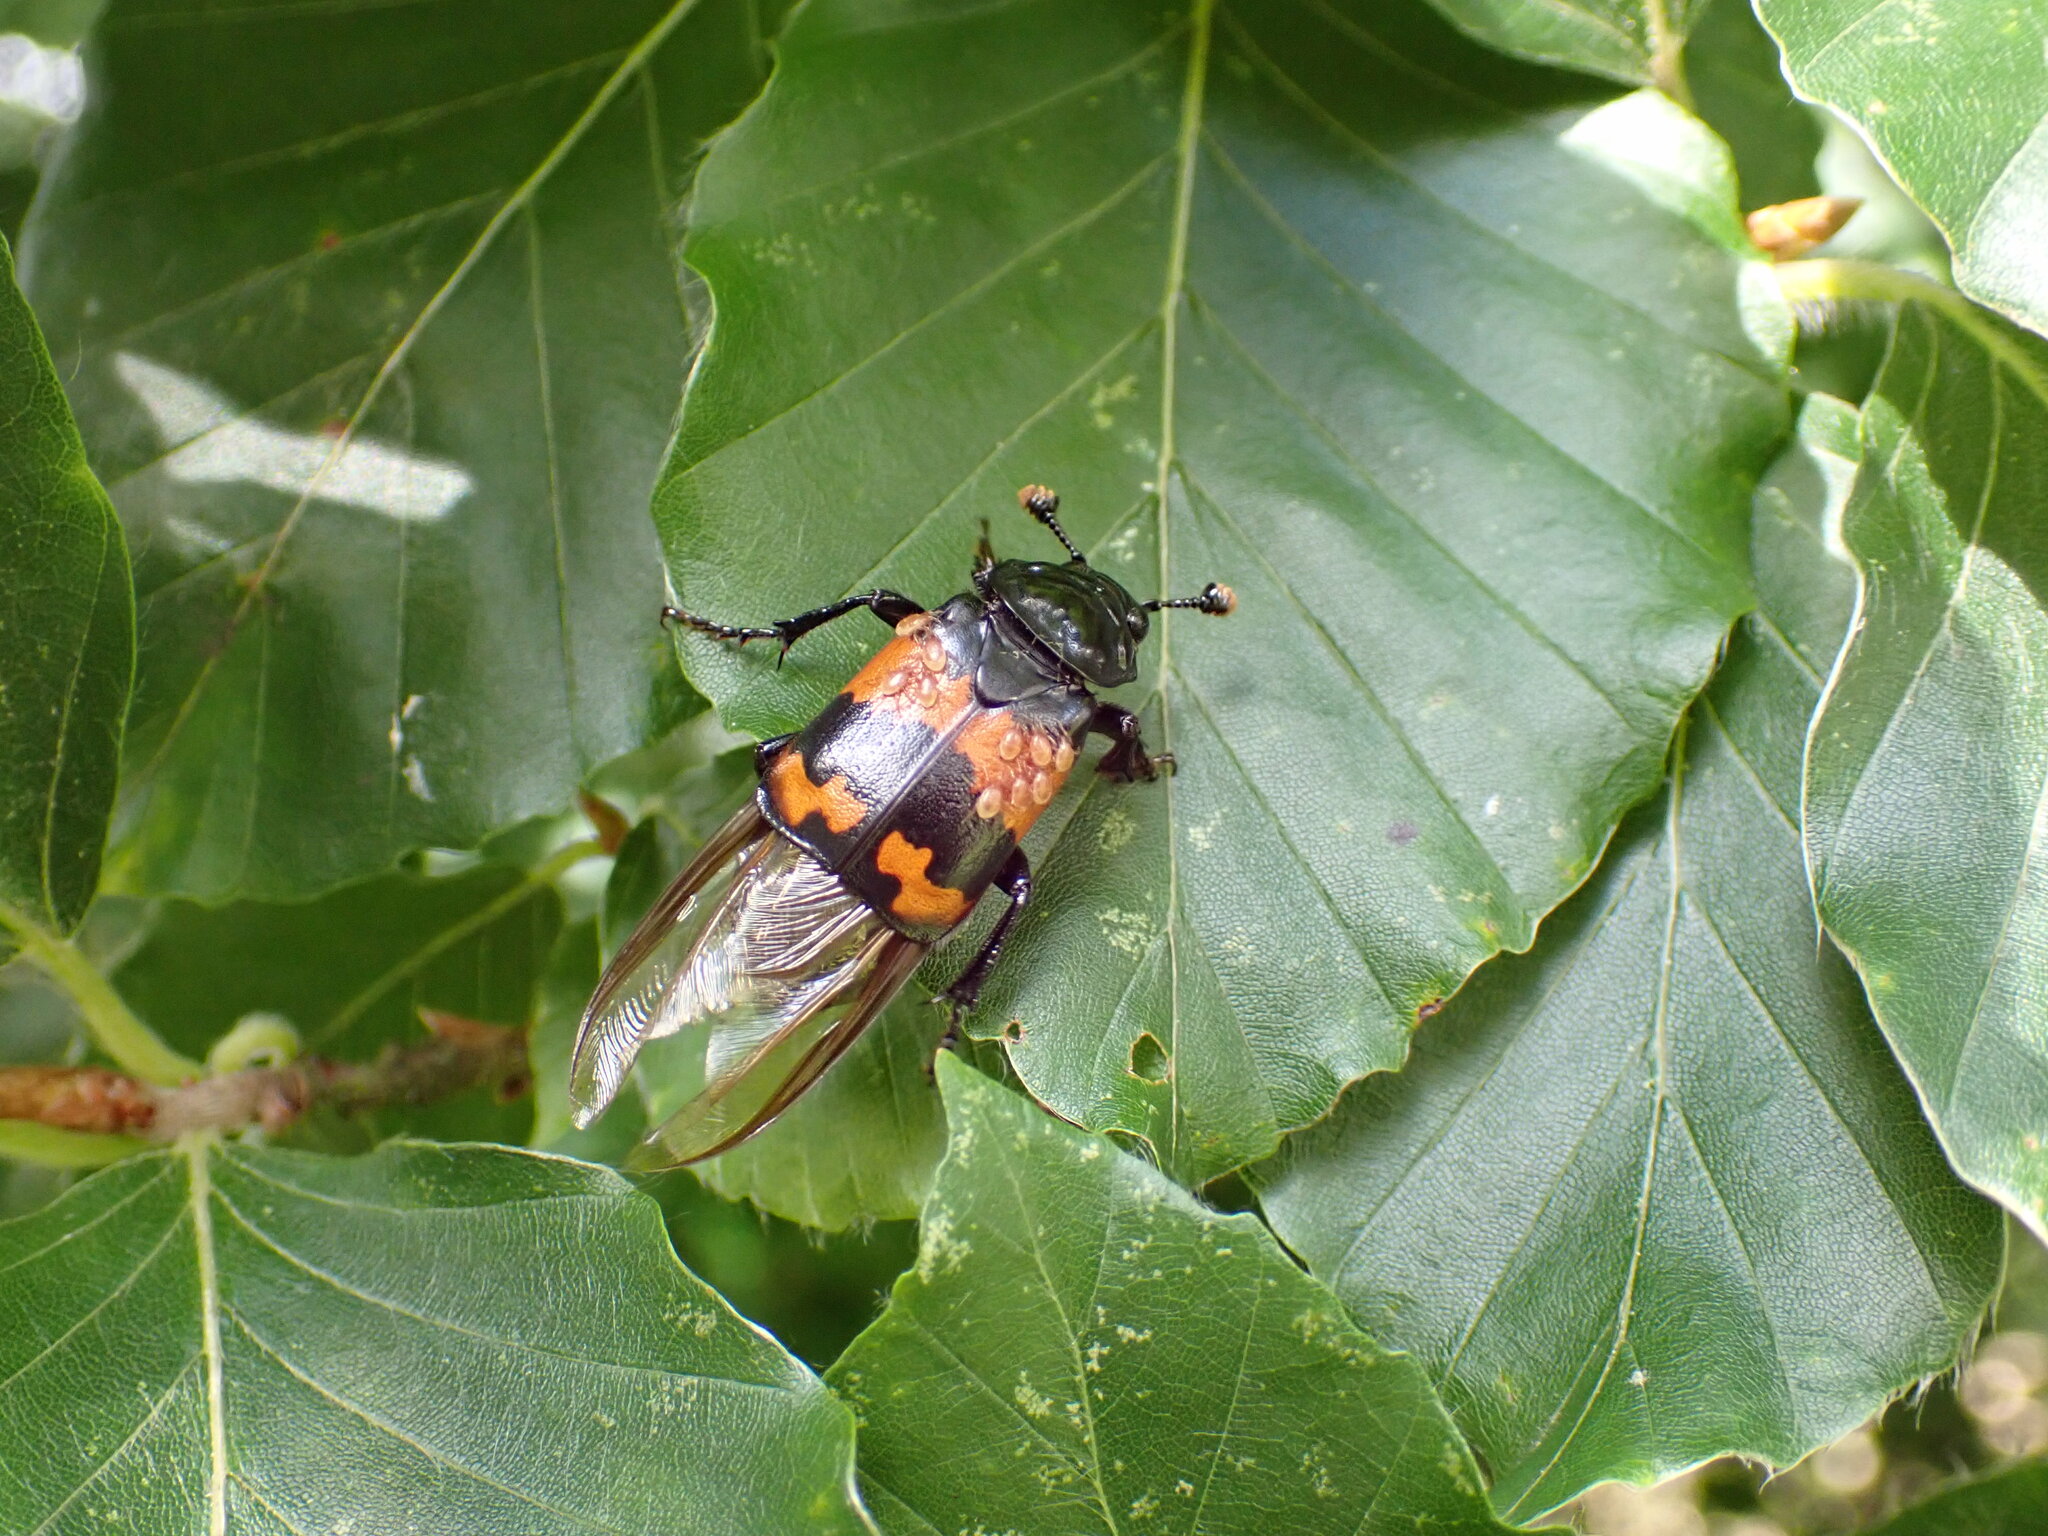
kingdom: Animalia
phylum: Arthropoda
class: Insecta
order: Coleoptera
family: Staphylinidae
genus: Nicrophorus
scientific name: Nicrophorus investigator
